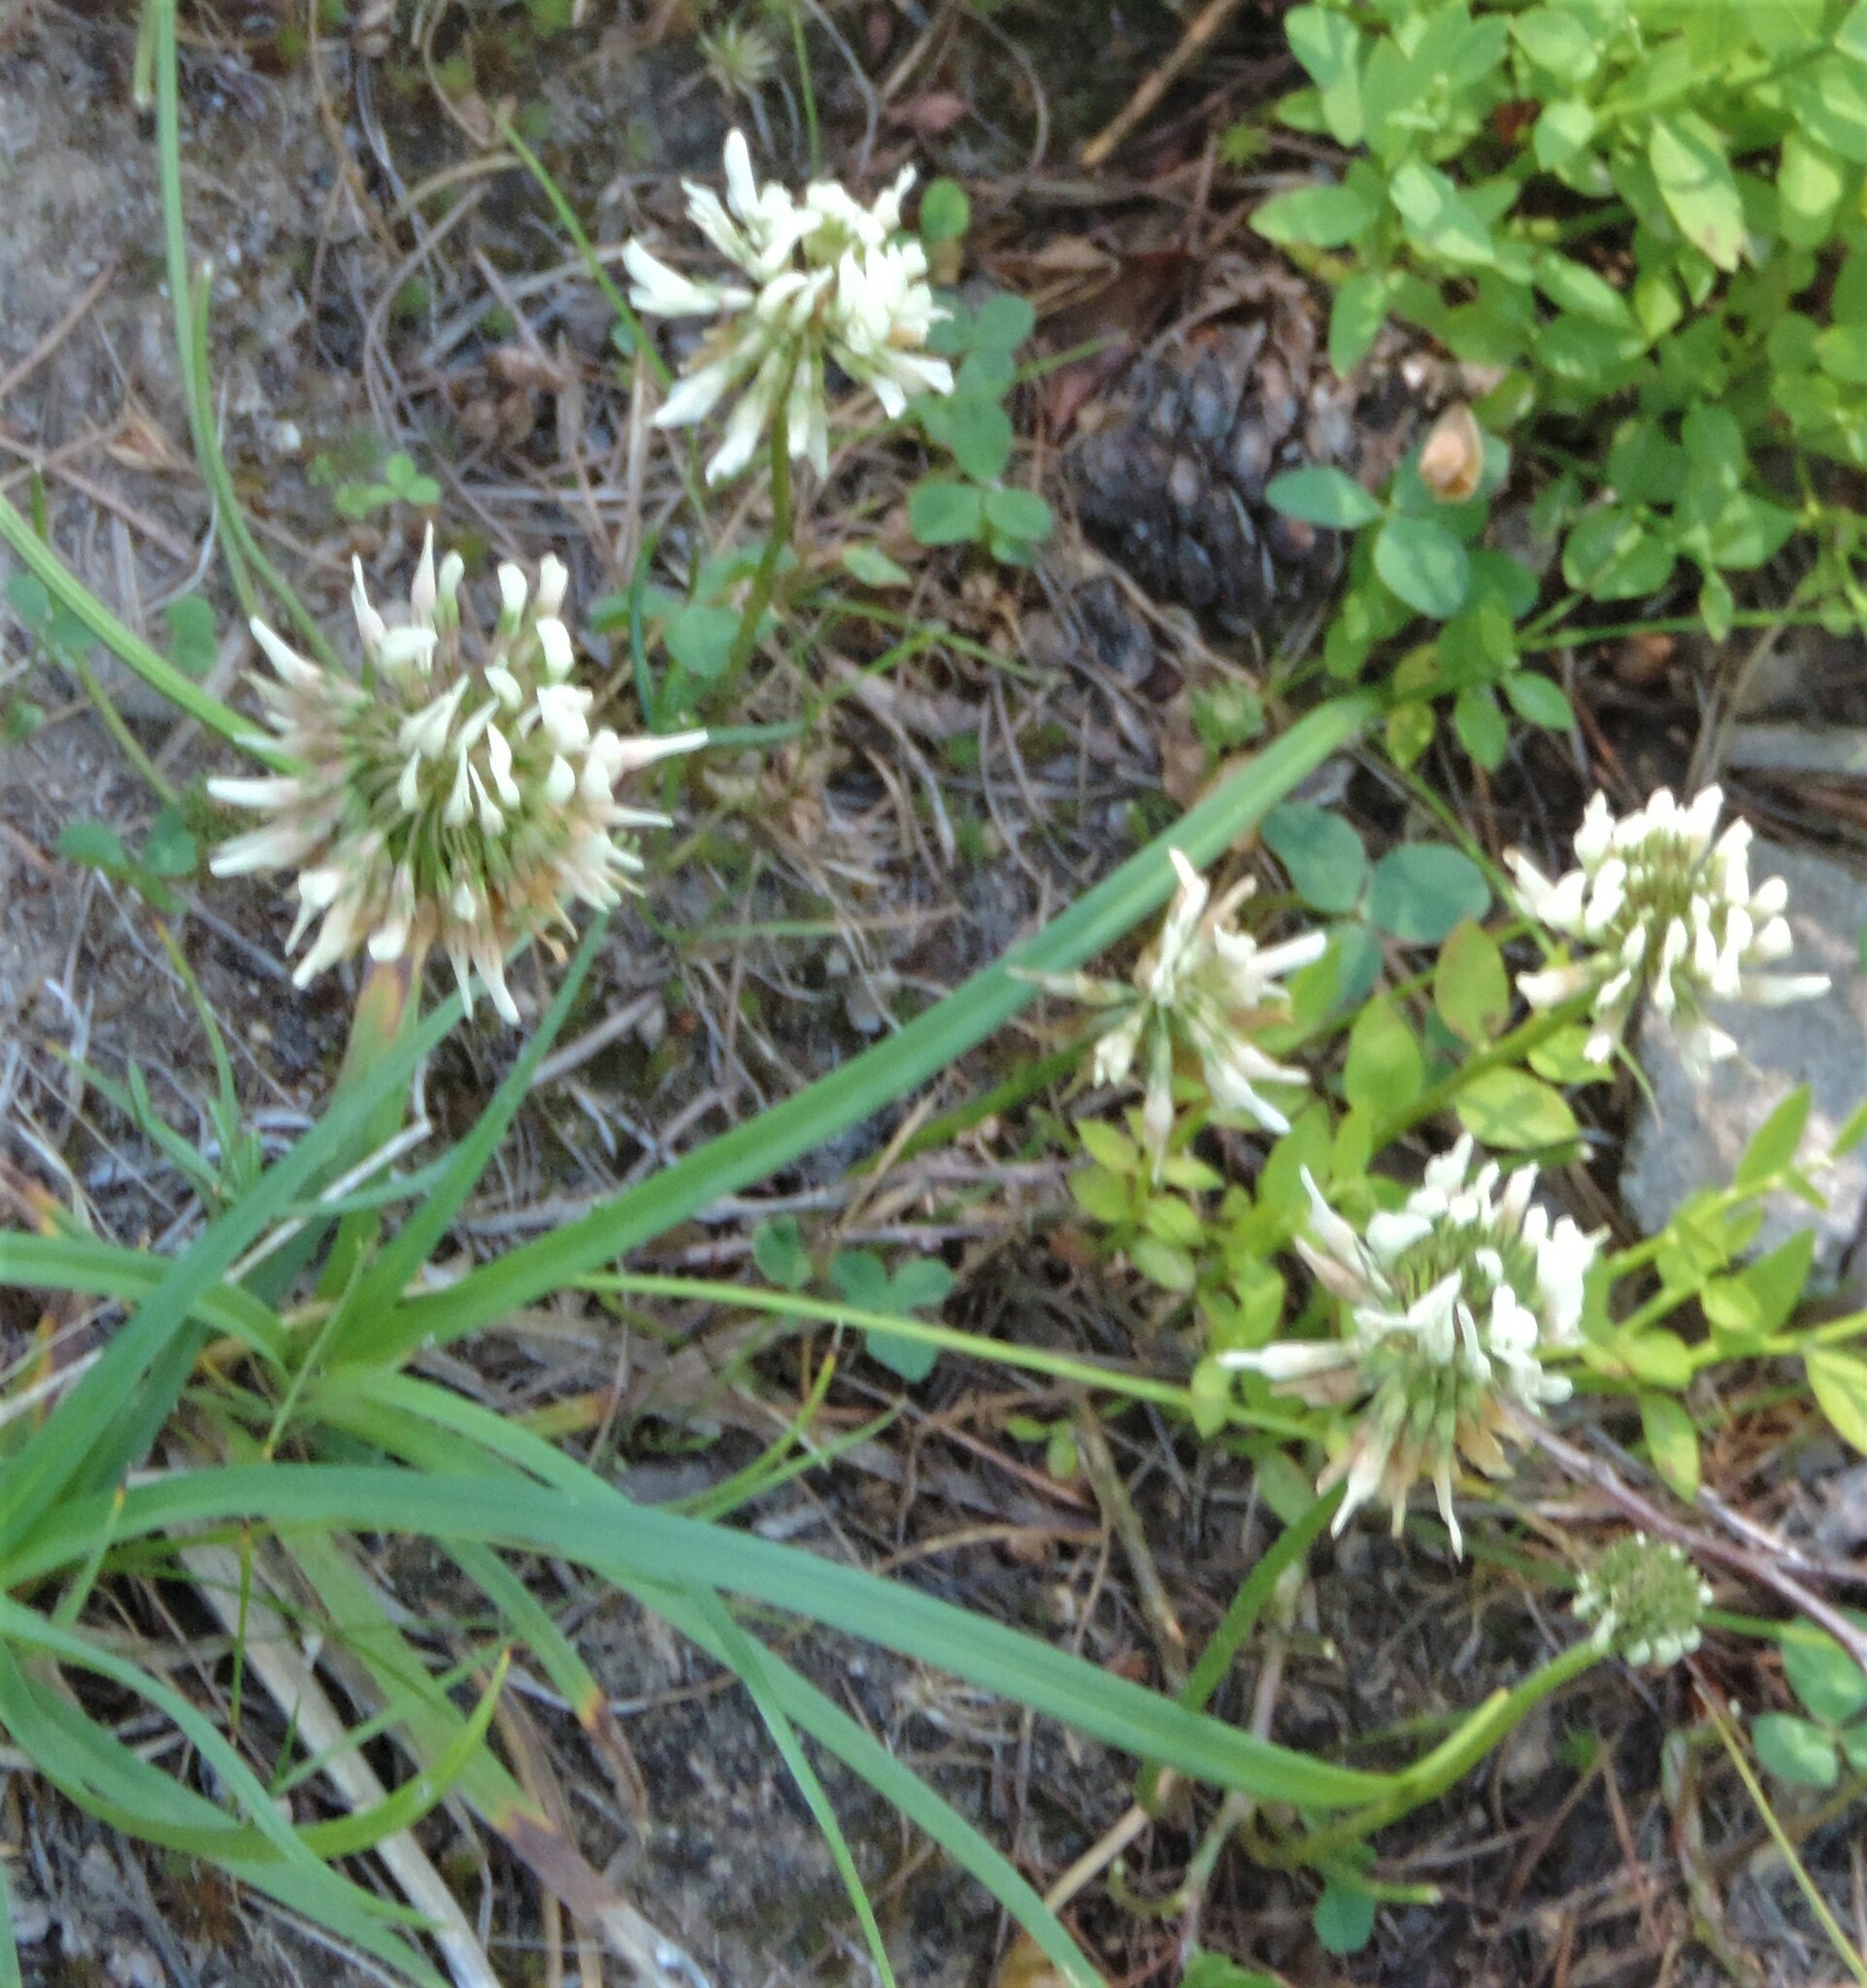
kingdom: Plantae
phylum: Tracheophyta
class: Magnoliopsida
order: Fabales
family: Fabaceae
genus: Trifolium
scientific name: Trifolium repens
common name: White clover
